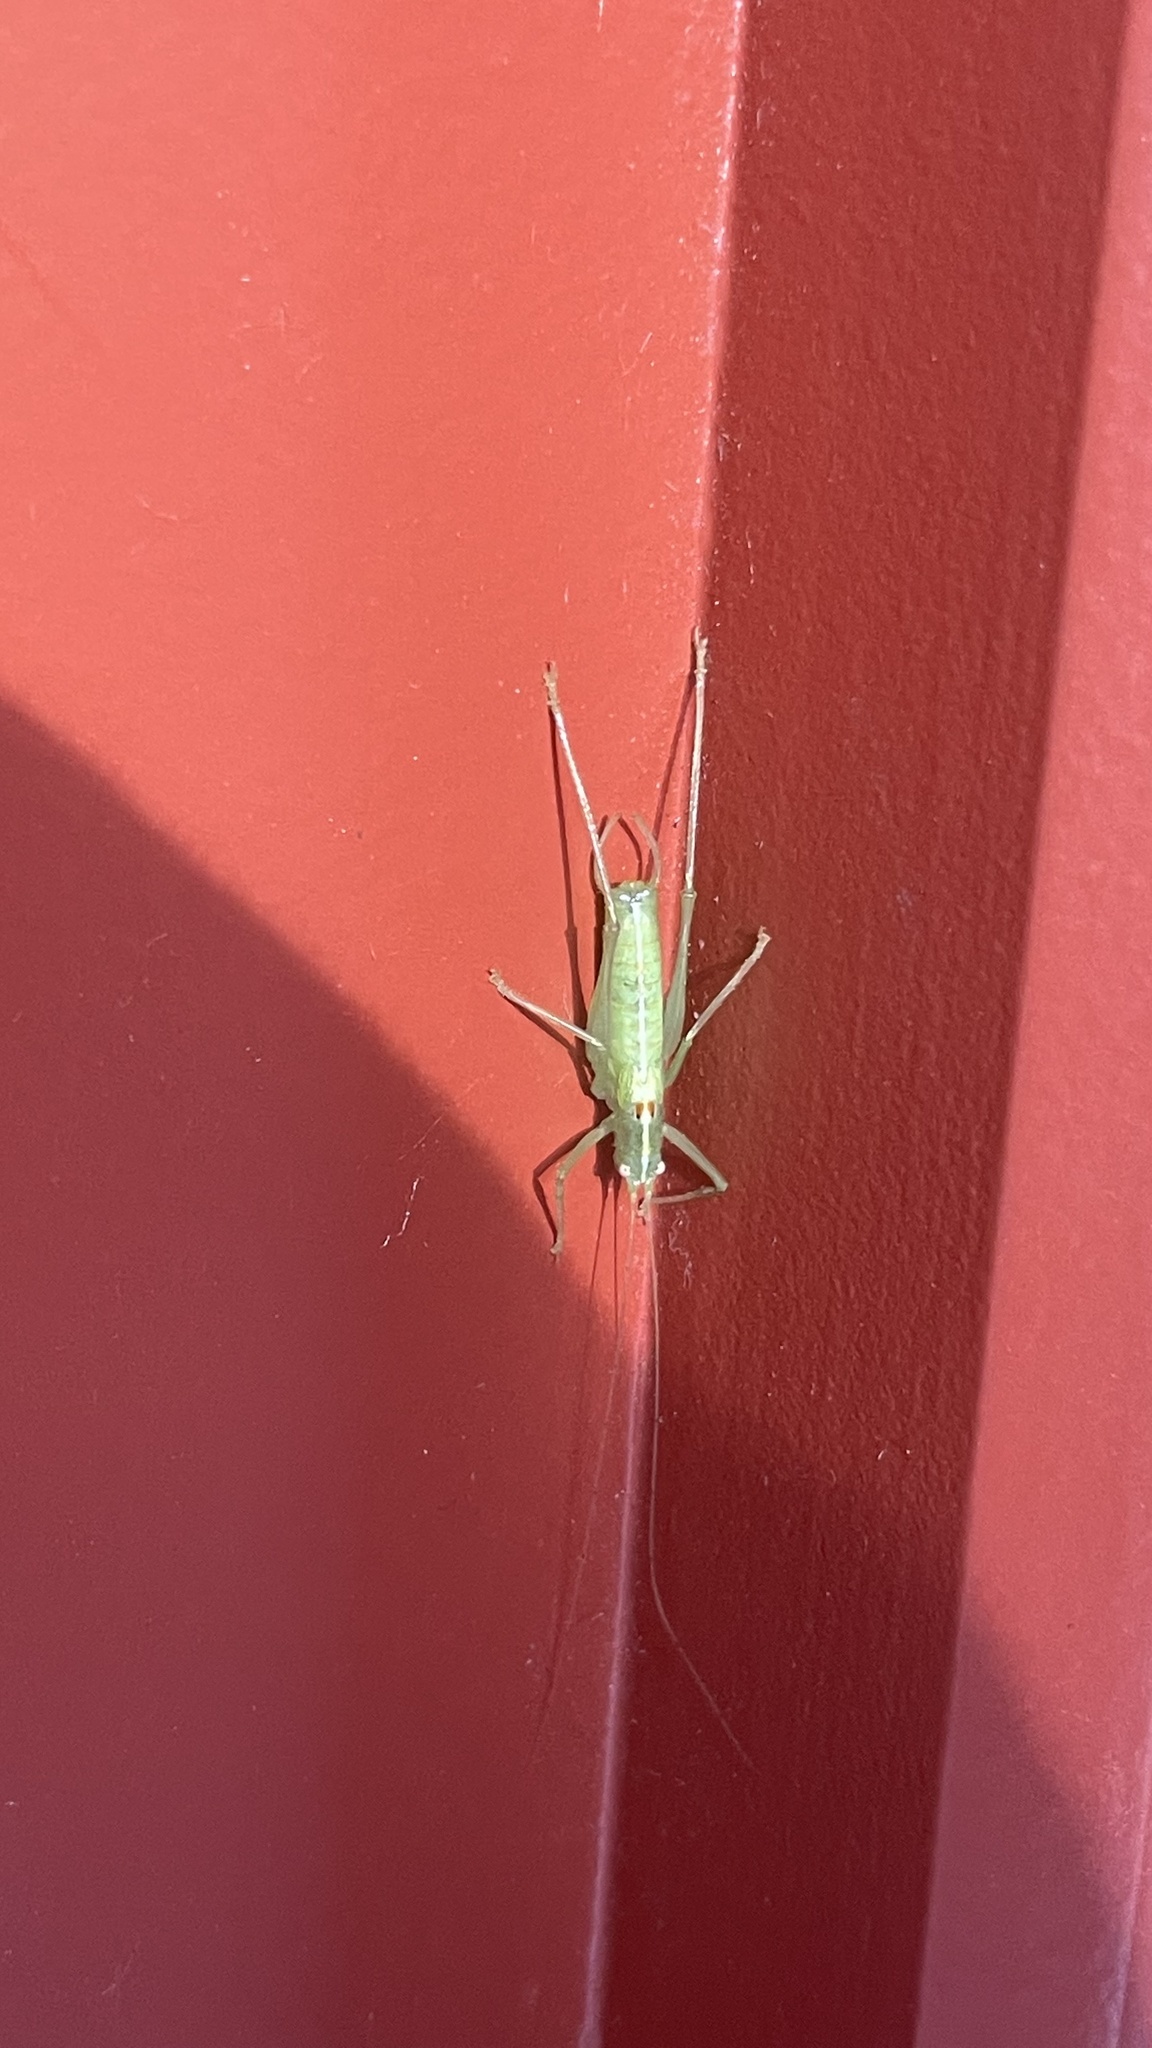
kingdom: Animalia
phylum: Arthropoda
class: Insecta
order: Orthoptera
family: Tettigoniidae
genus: Meconema
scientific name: Meconema meridionale
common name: Southern oak bush-cricket
